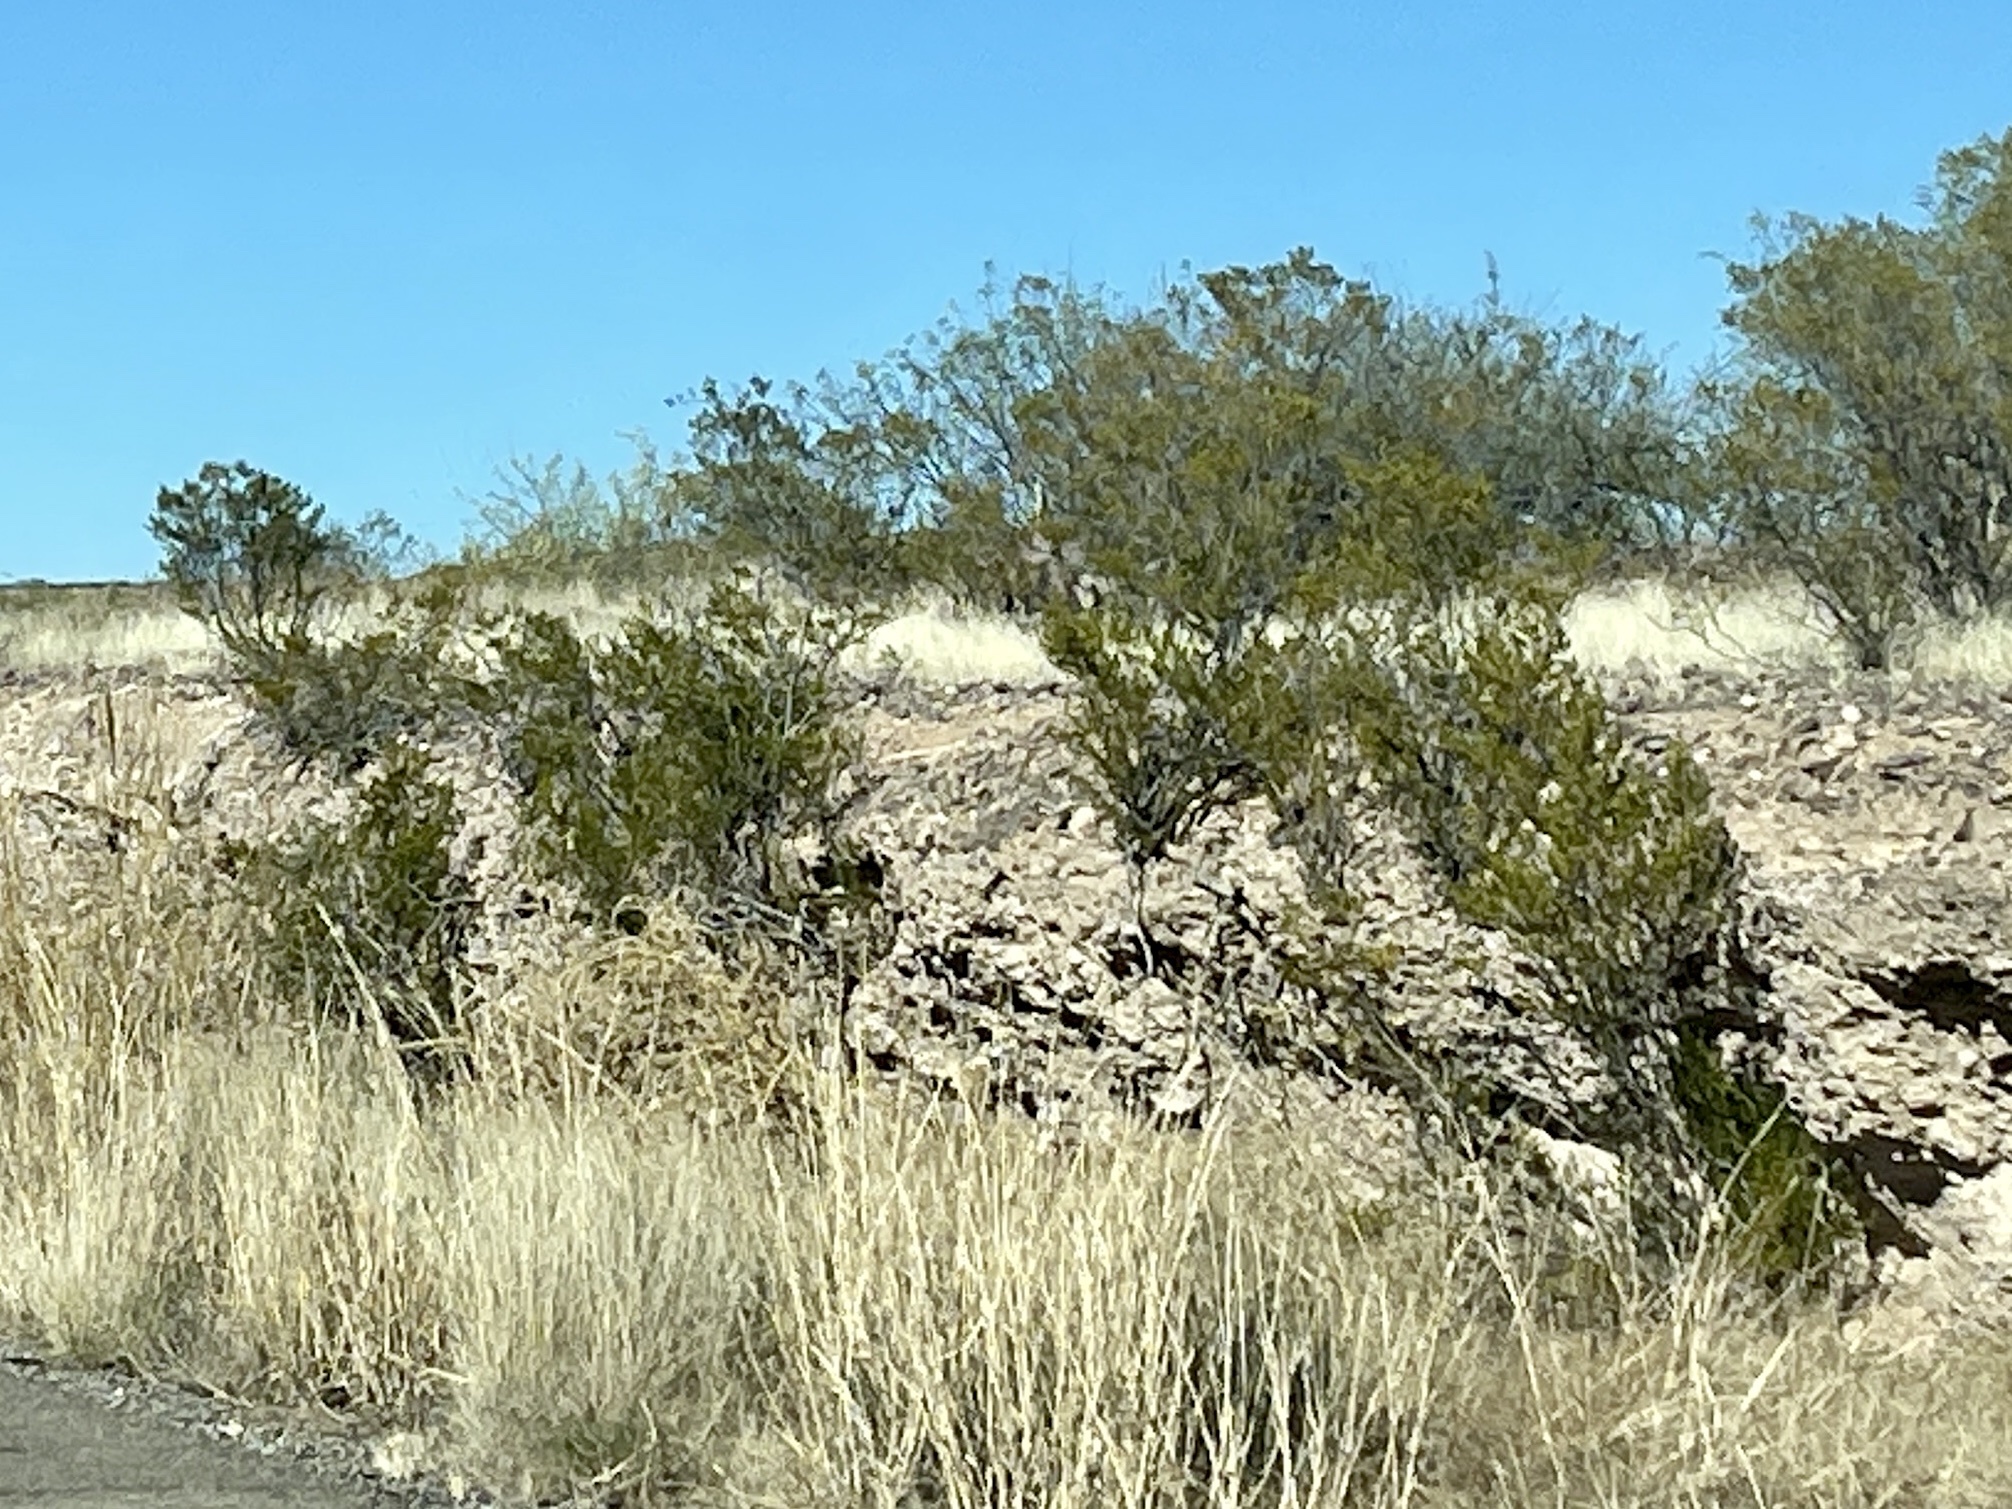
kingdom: Plantae
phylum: Tracheophyta
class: Magnoliopsida
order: Zygophyllales
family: Zygophyllaceae
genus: Larrea
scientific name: Larrea tridentata
